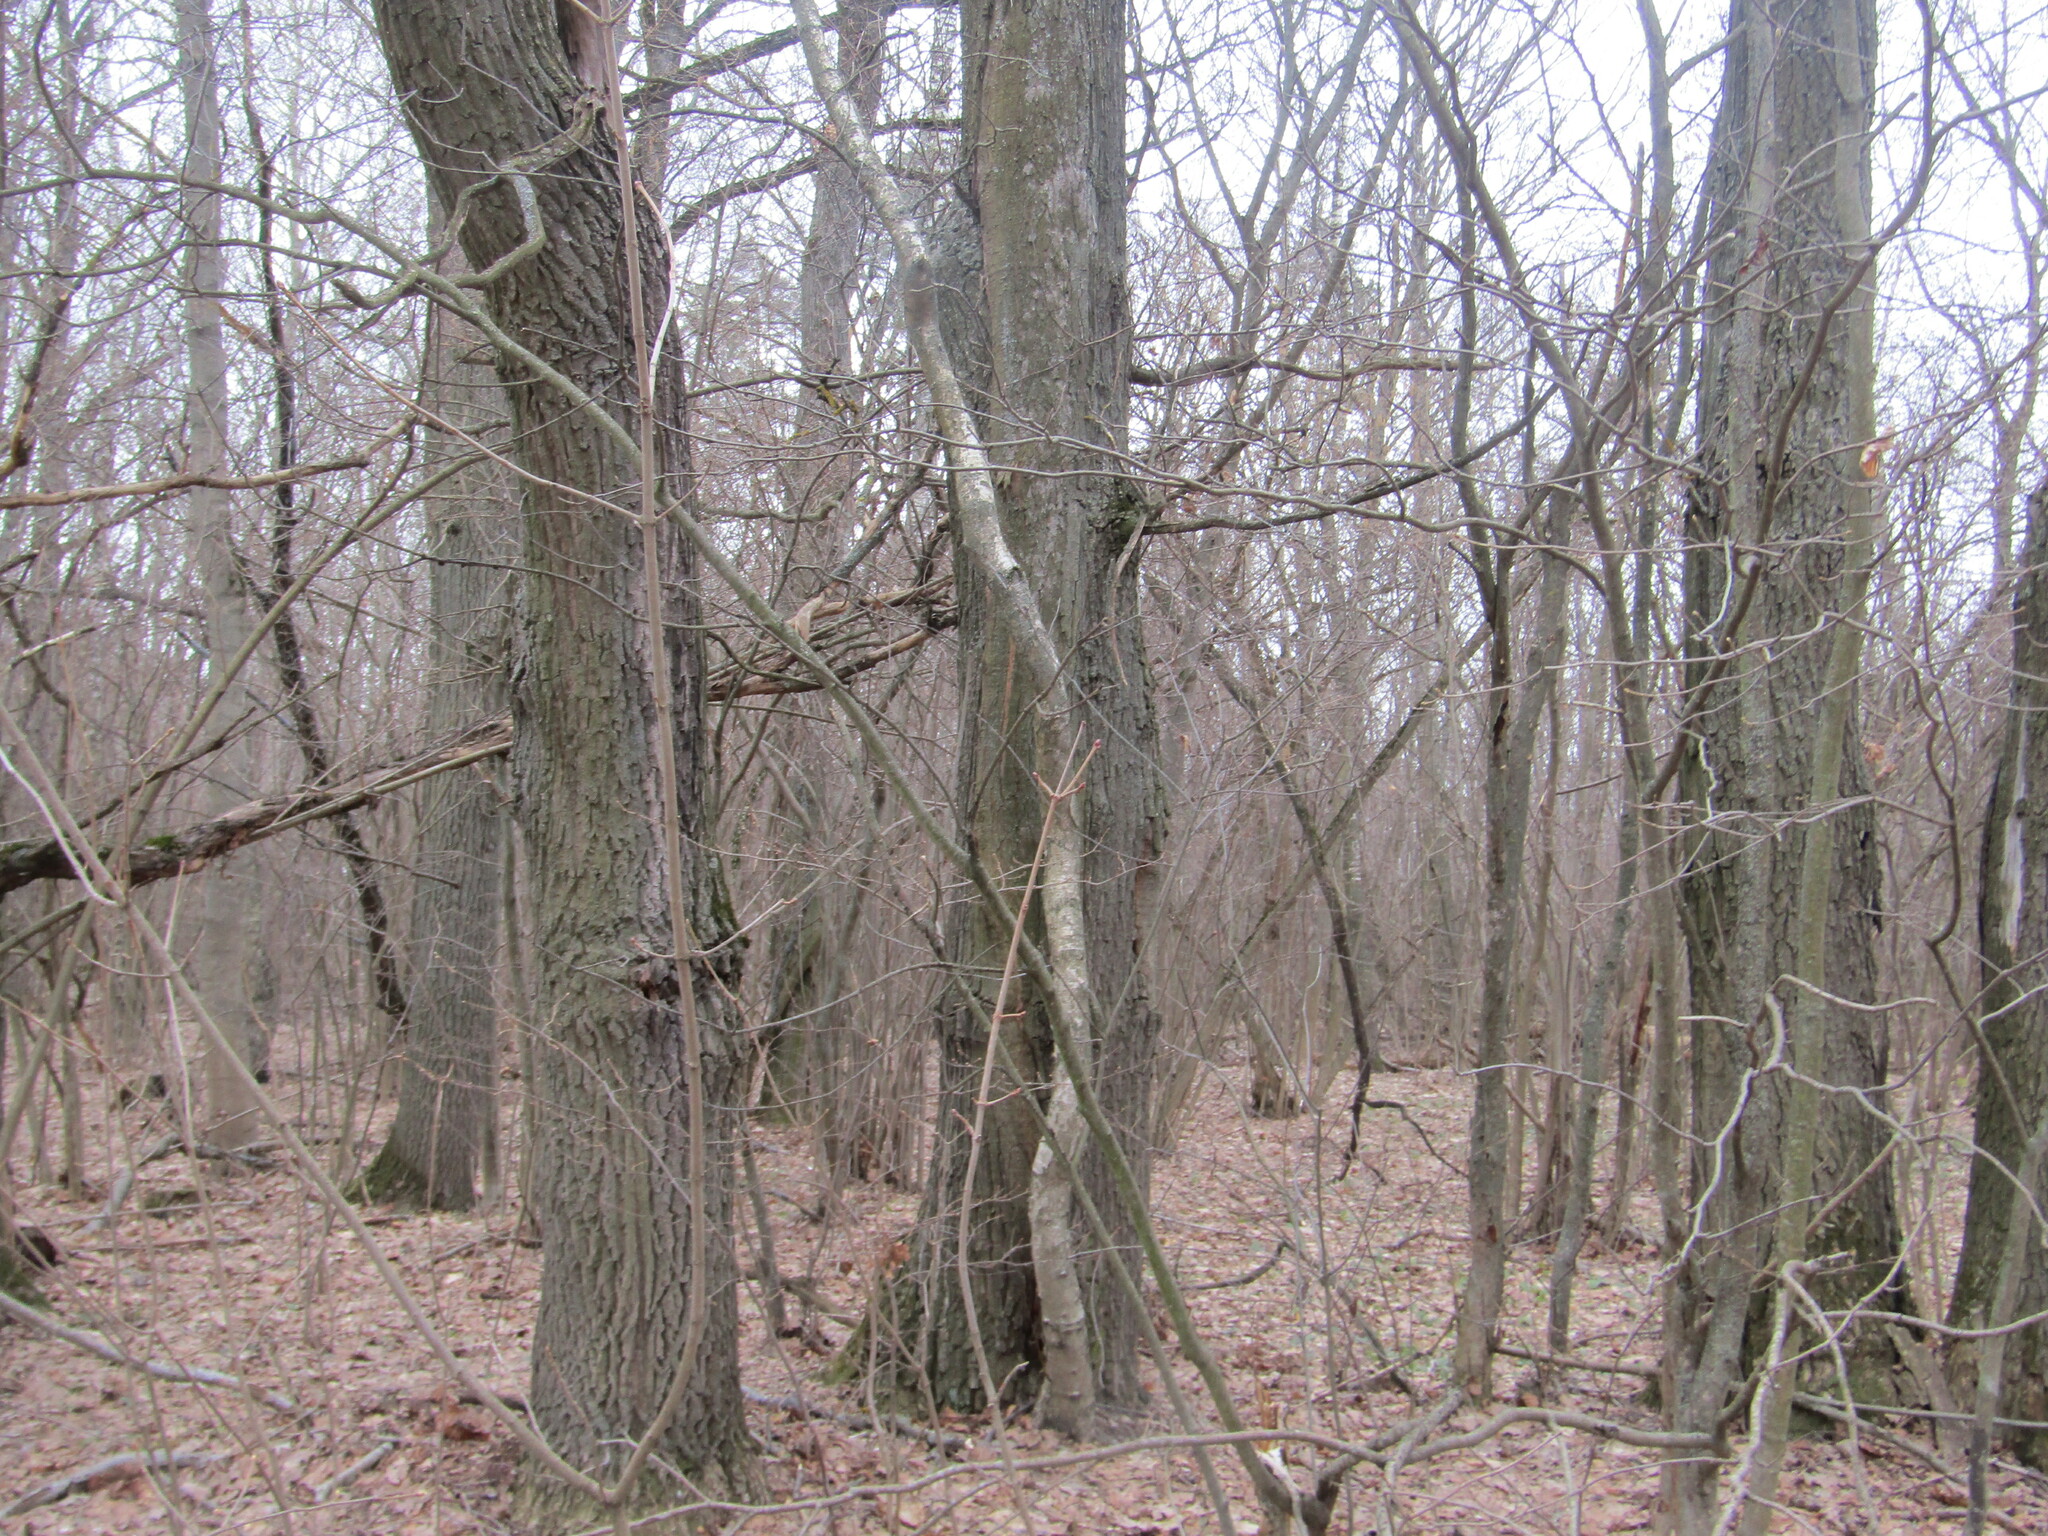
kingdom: Plantae
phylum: Tracheophyta
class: Magnoliopsida
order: Fagales
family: Fagaceae
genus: Quercus
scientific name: Quercus robur
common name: Pedunculate oak
